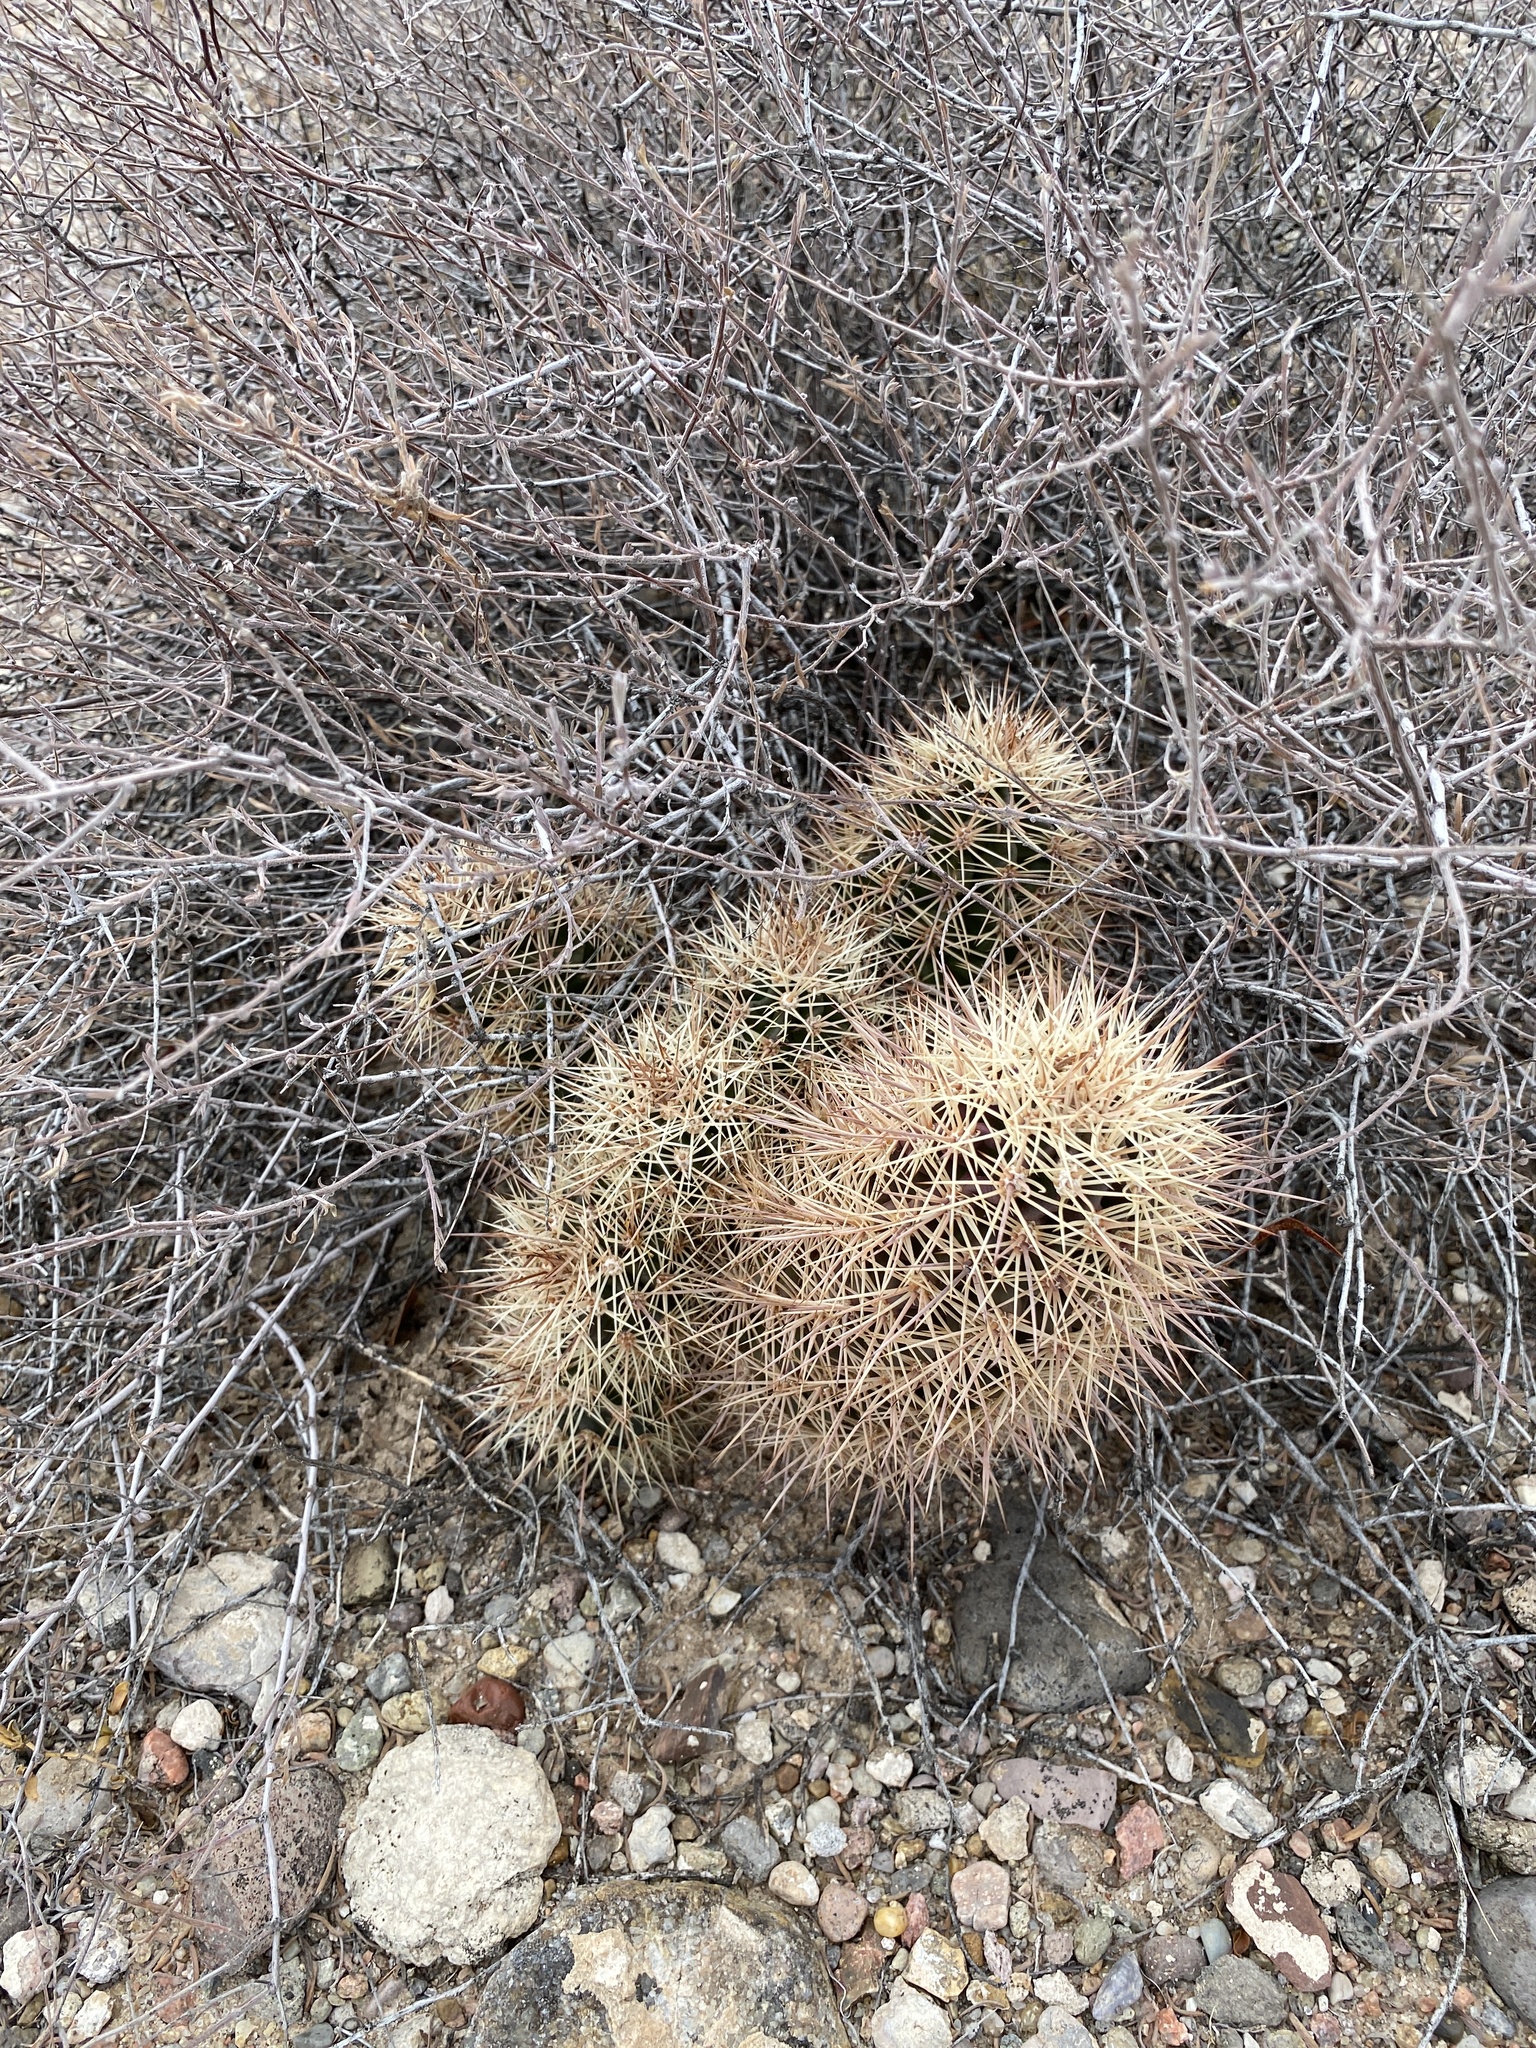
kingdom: Plantae
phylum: Tracheophyta
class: Magnoliopsida
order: Caryophyllales
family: Cactaceae
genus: Echinocereus
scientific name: Echinocereus coccineus
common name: Scarlet hedgehog cactus
